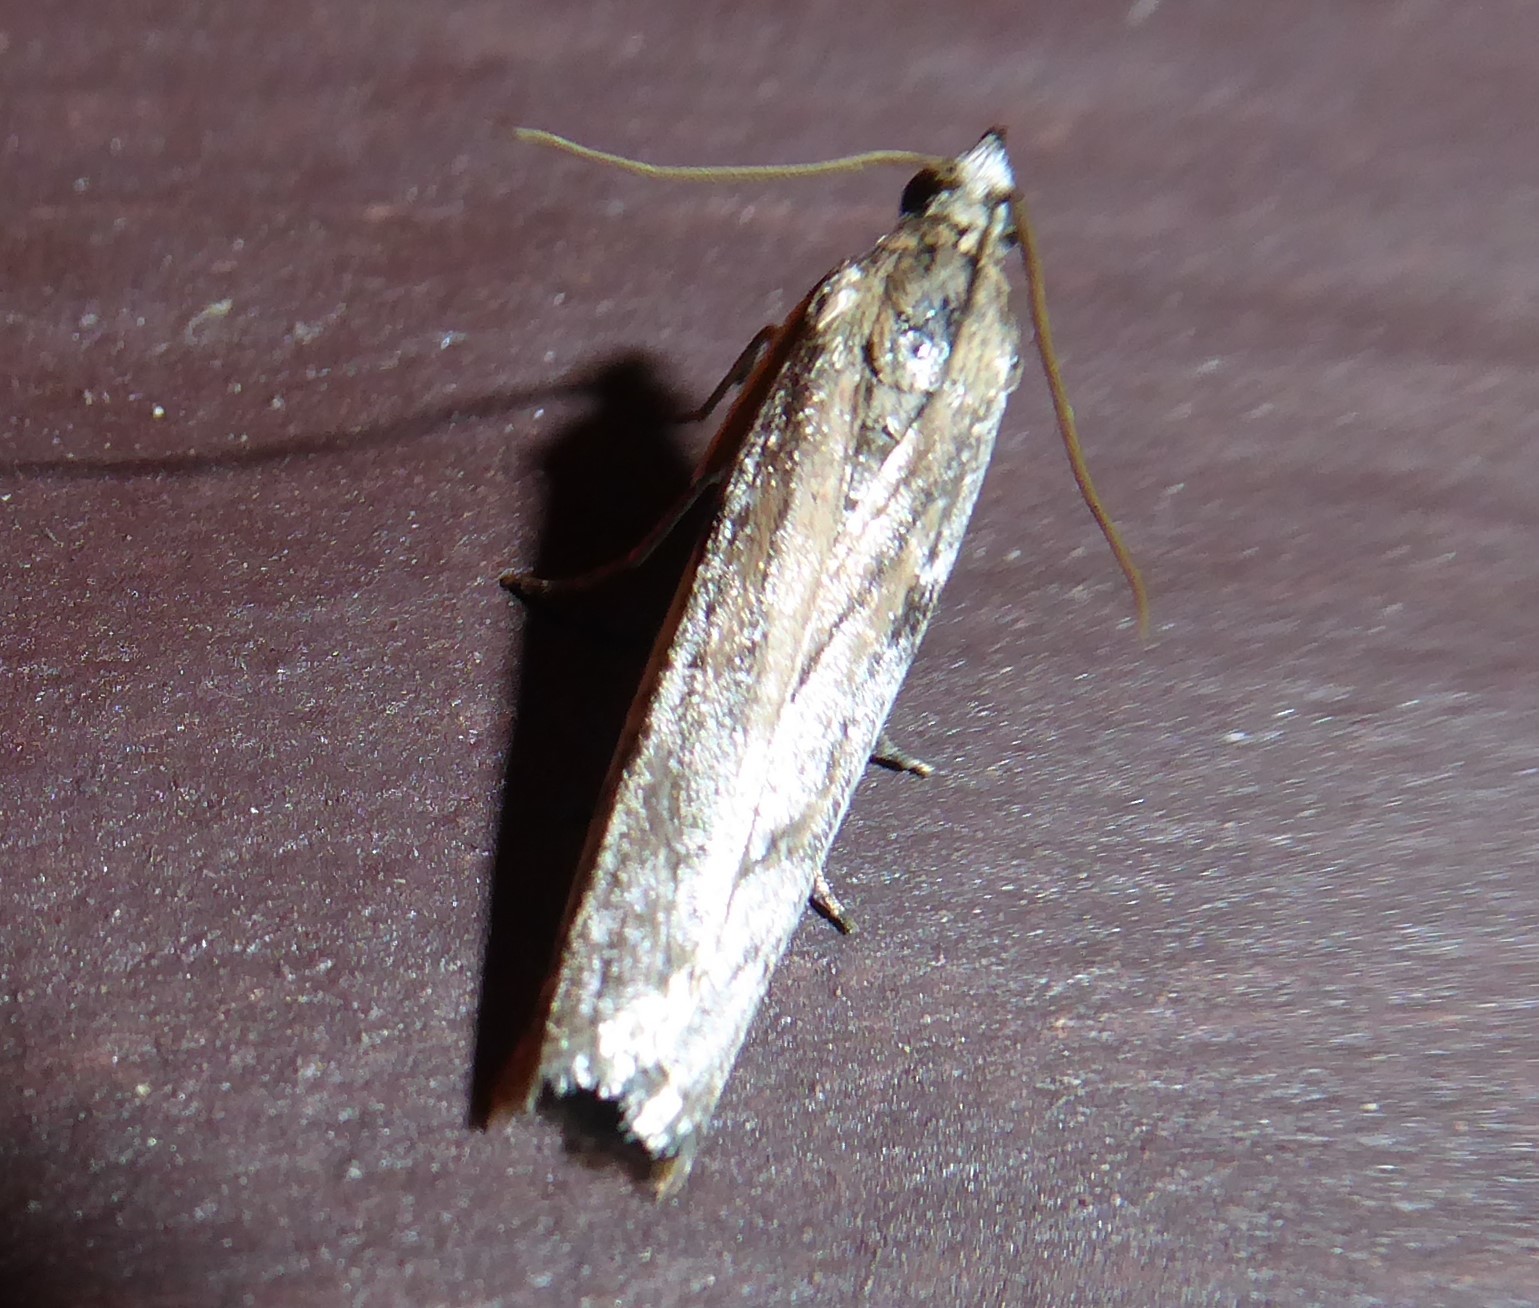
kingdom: Animalia
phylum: Arthropoda
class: Insecta
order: Lepidoptera
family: Pyralidae
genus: Patagoniodes
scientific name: Patagoniodes farinaria
